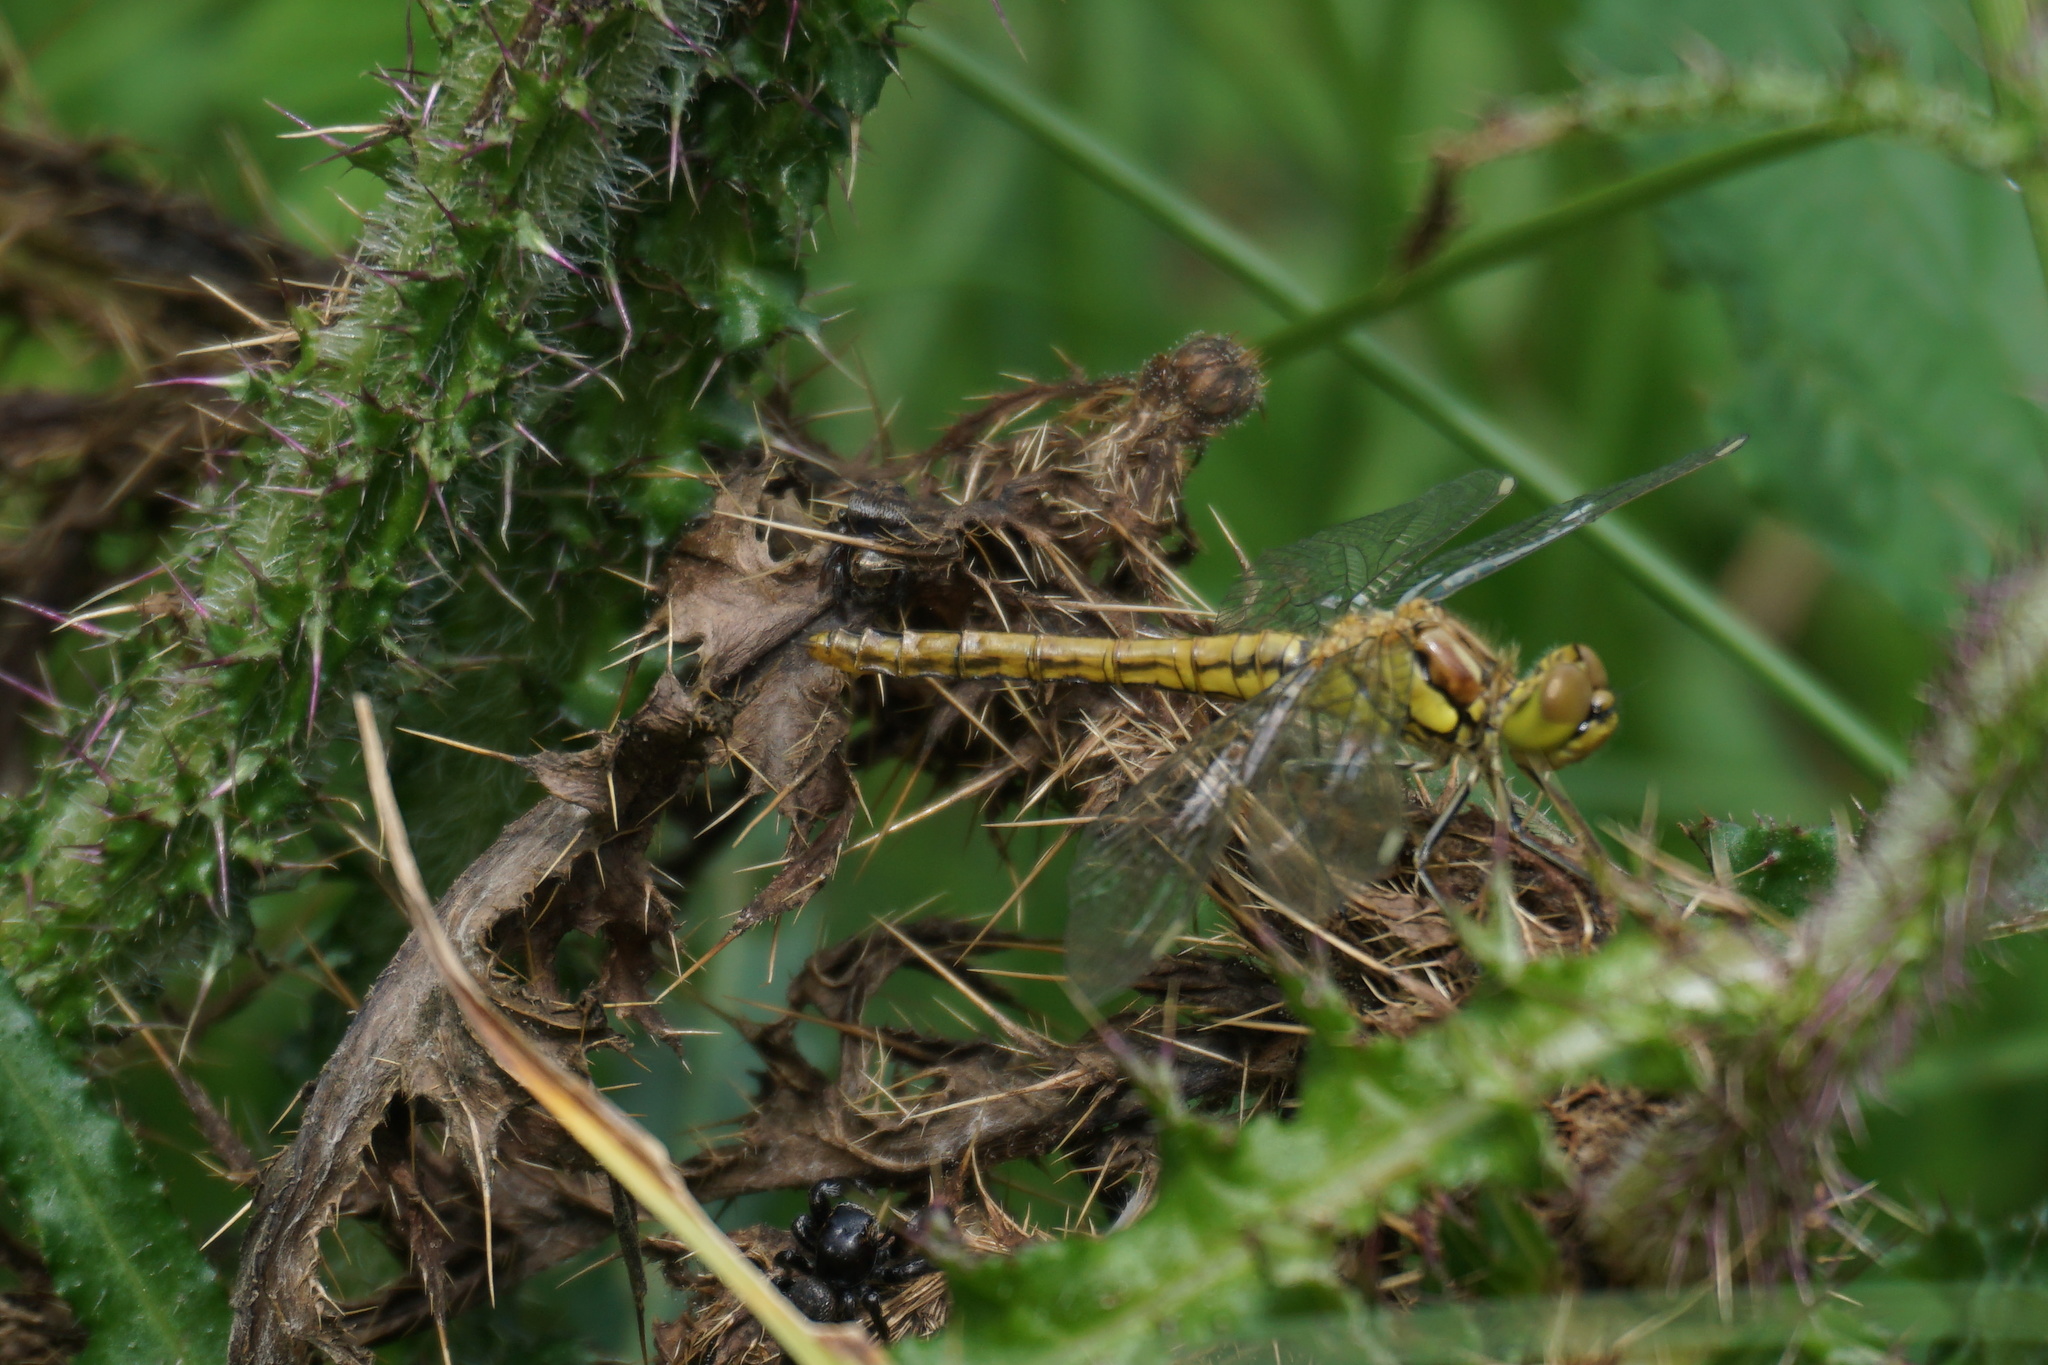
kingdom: Animalia
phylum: Arthropoda
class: Insecta
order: Odonata
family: Libellulidae
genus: Sympetrum
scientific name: Sympetrum vulgatum
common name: Vagrant darter
